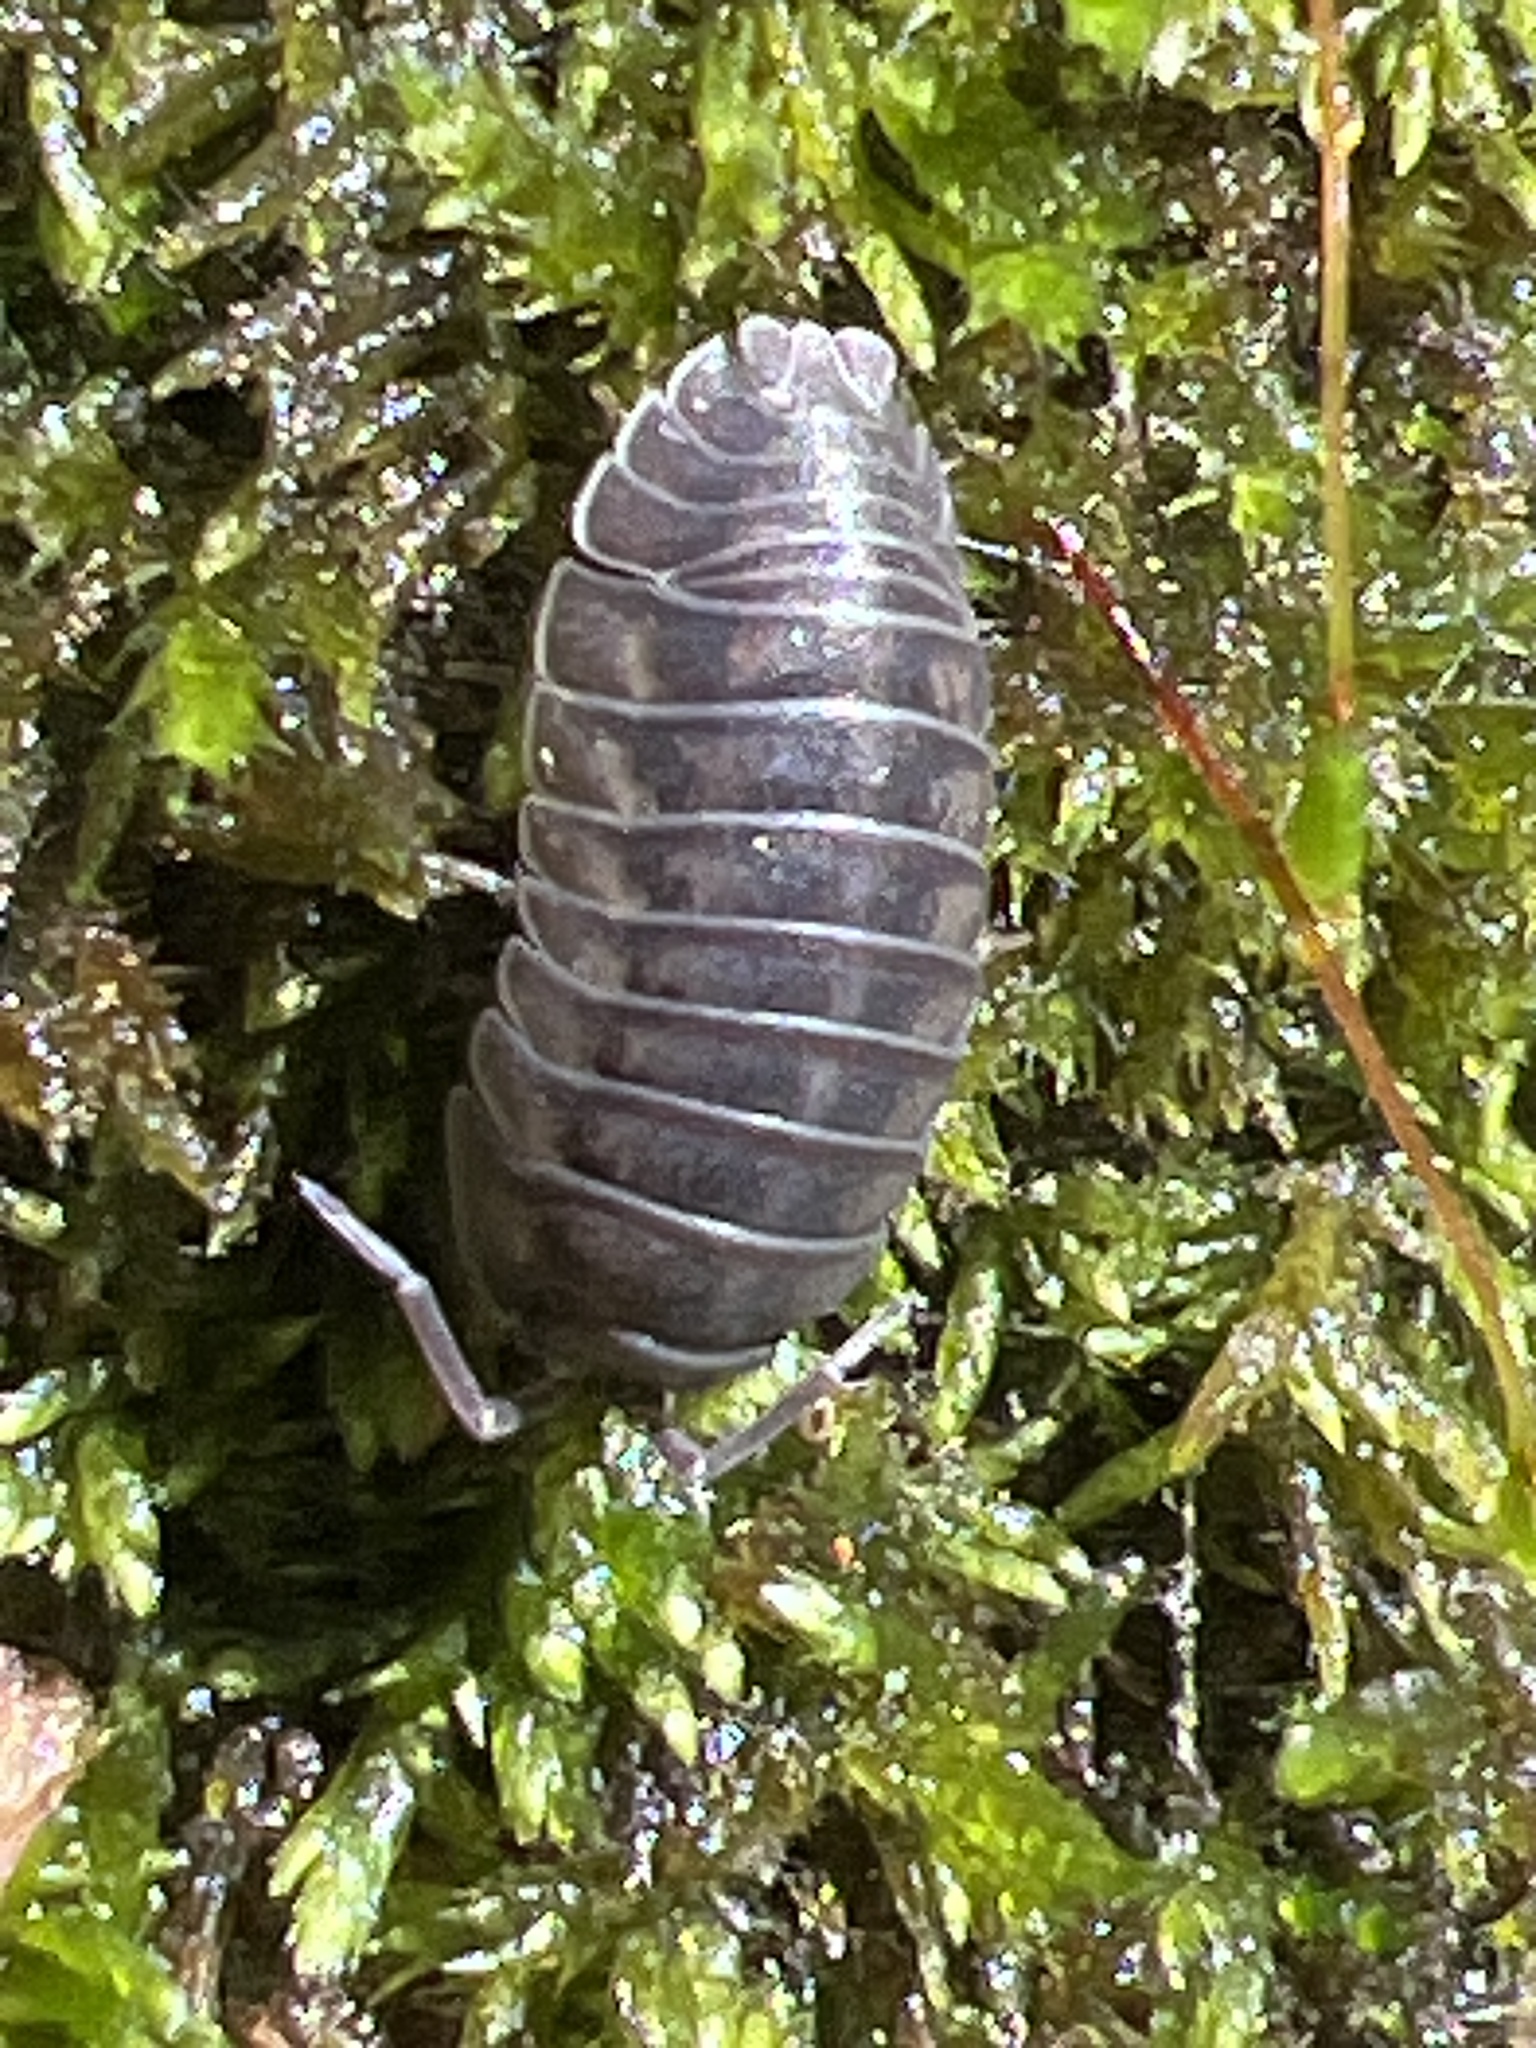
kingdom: Animalia
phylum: Arthropoda
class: Malacostraca
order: Isopoda
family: Armadillidiidae
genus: Armadillidium
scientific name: Armadillidium nasatum
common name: Isopod
